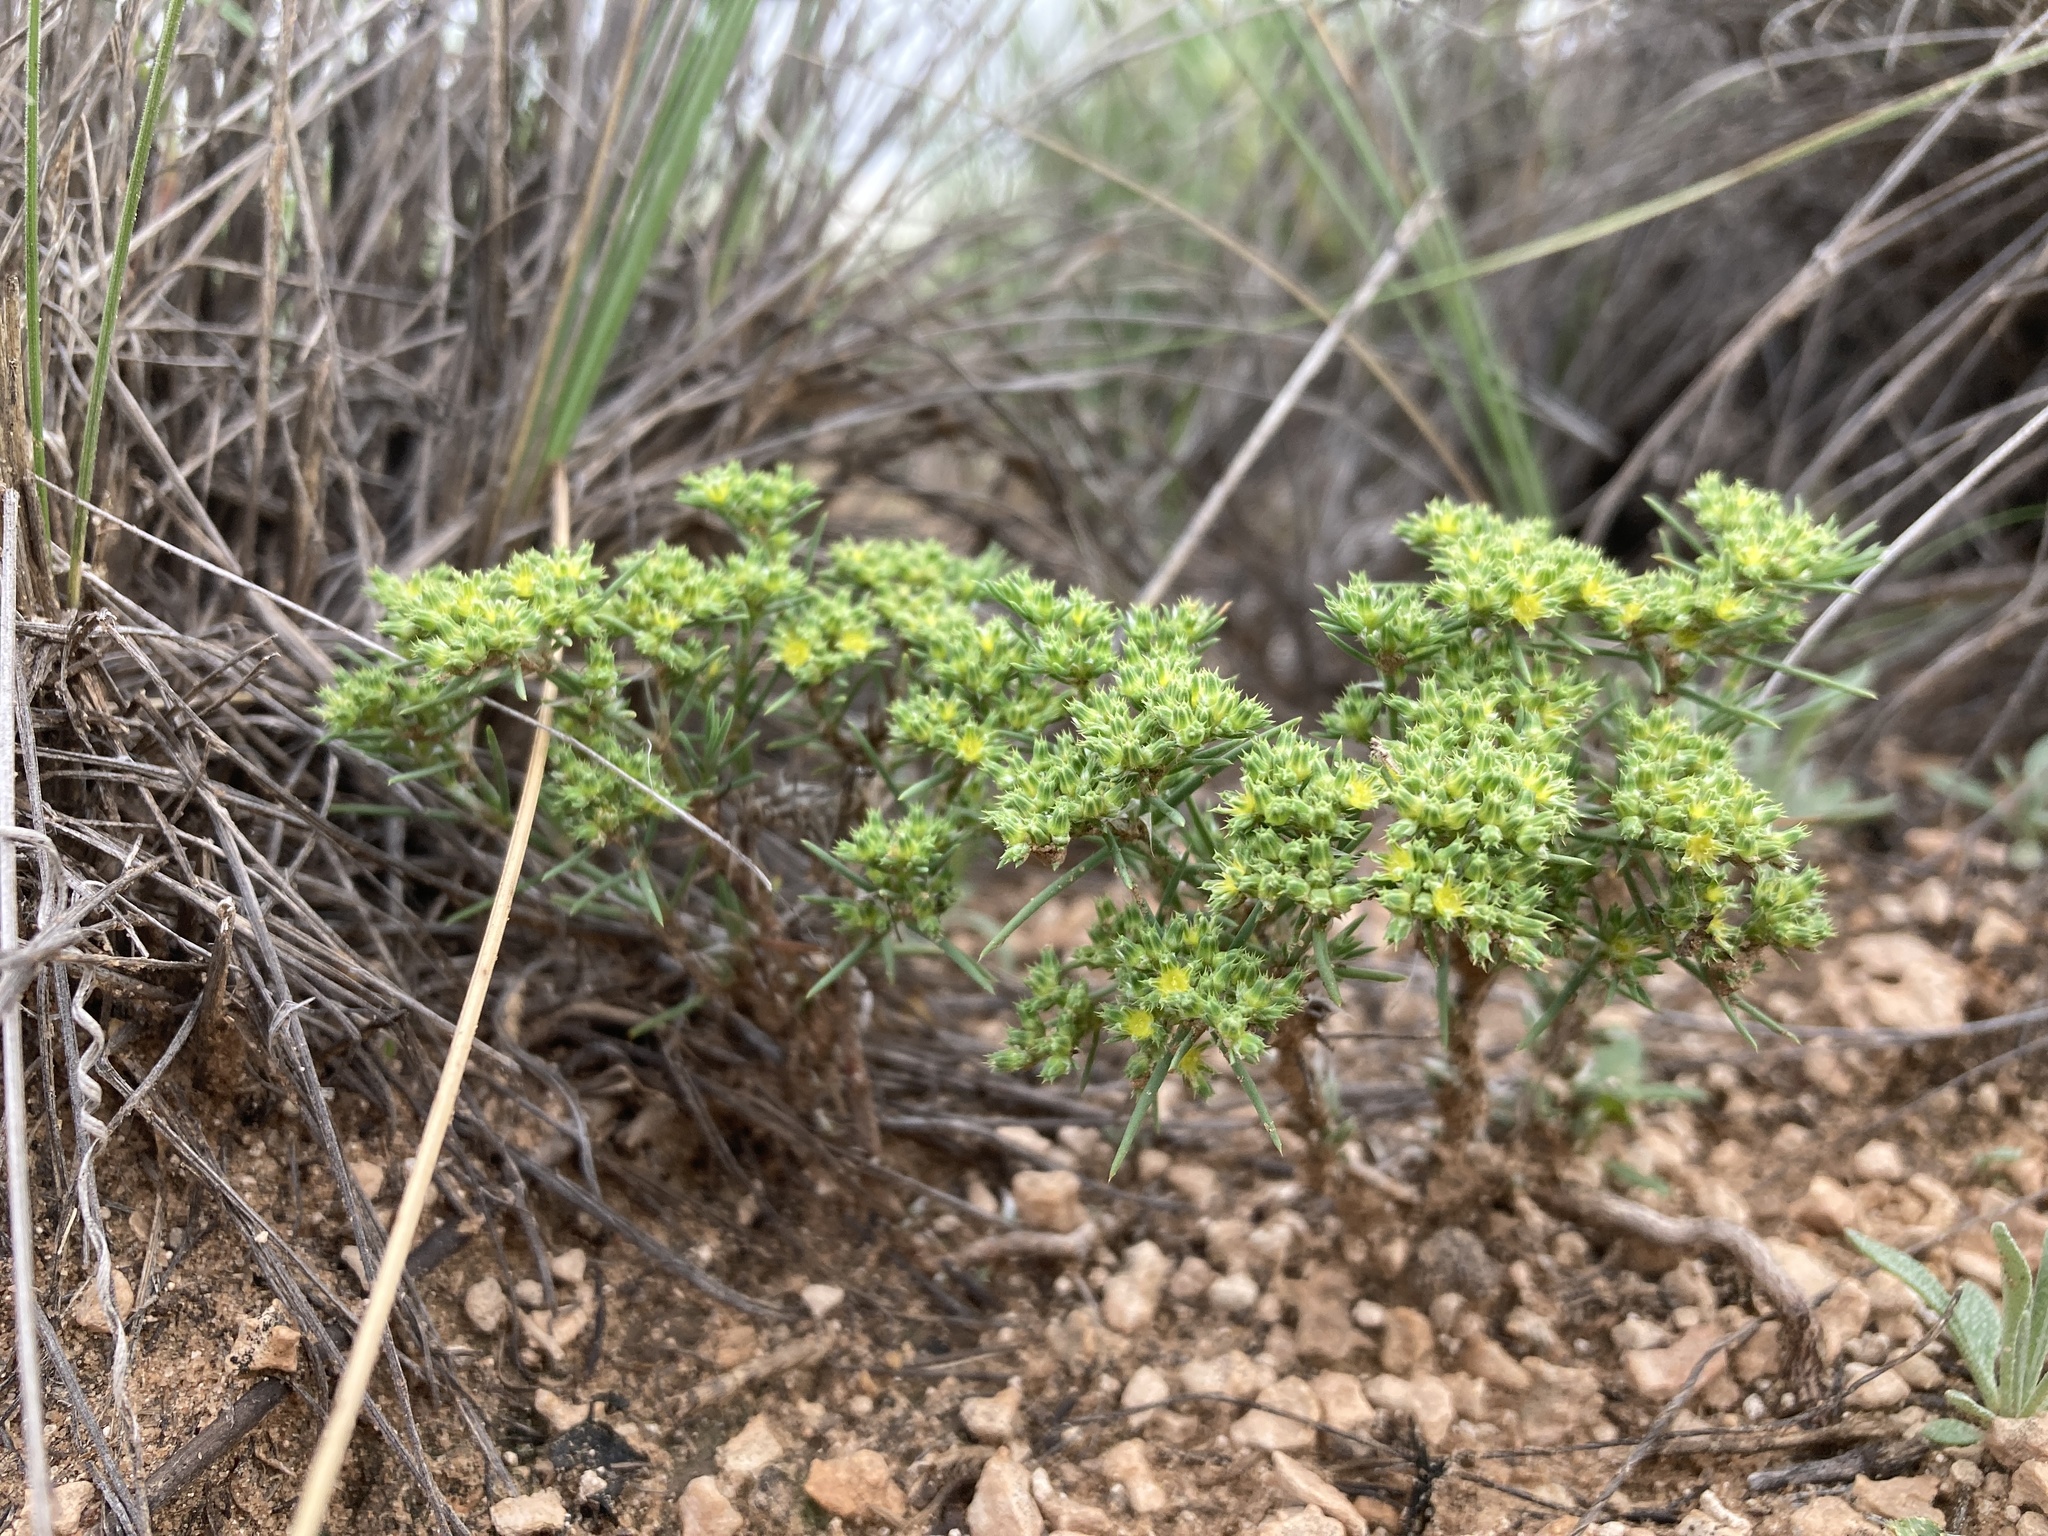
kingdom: Plantae
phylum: Tracheophyta
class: Magnoliopsida
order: Caryophyllales
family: Caryophyllaceae
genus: Paronychia
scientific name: Paronychia jamesii
